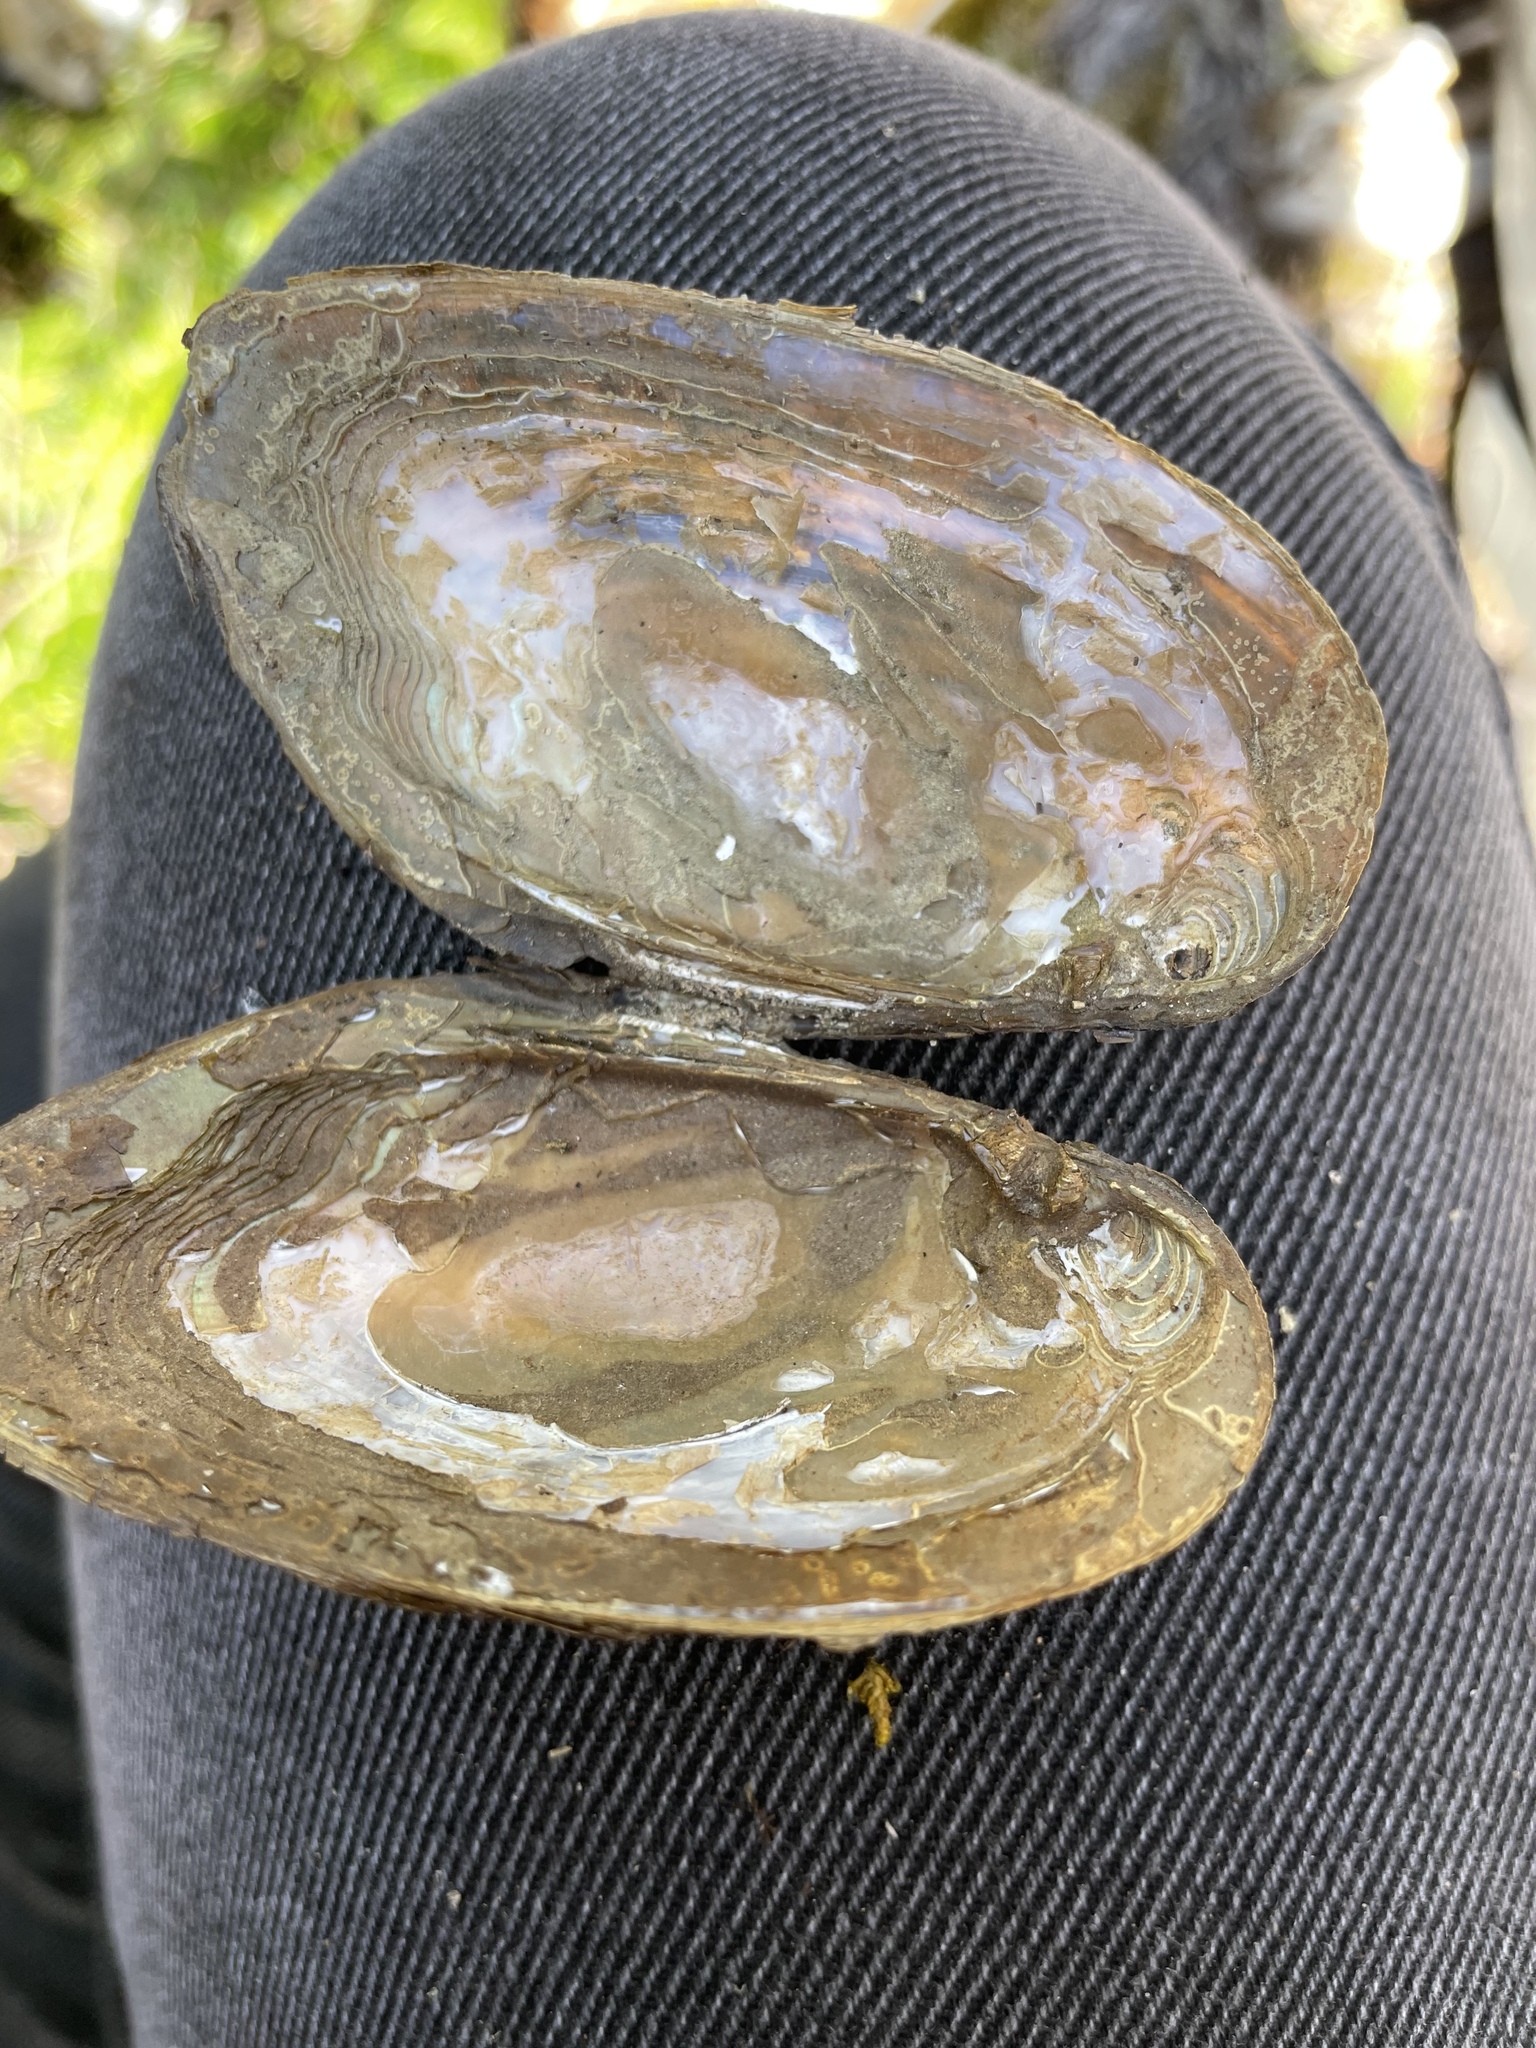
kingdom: Animalia
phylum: Mollusca
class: Bivalvia
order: Unionida
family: Unionidae
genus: Elliptio
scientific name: Elliptio complanata
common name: Eastern elliptio
